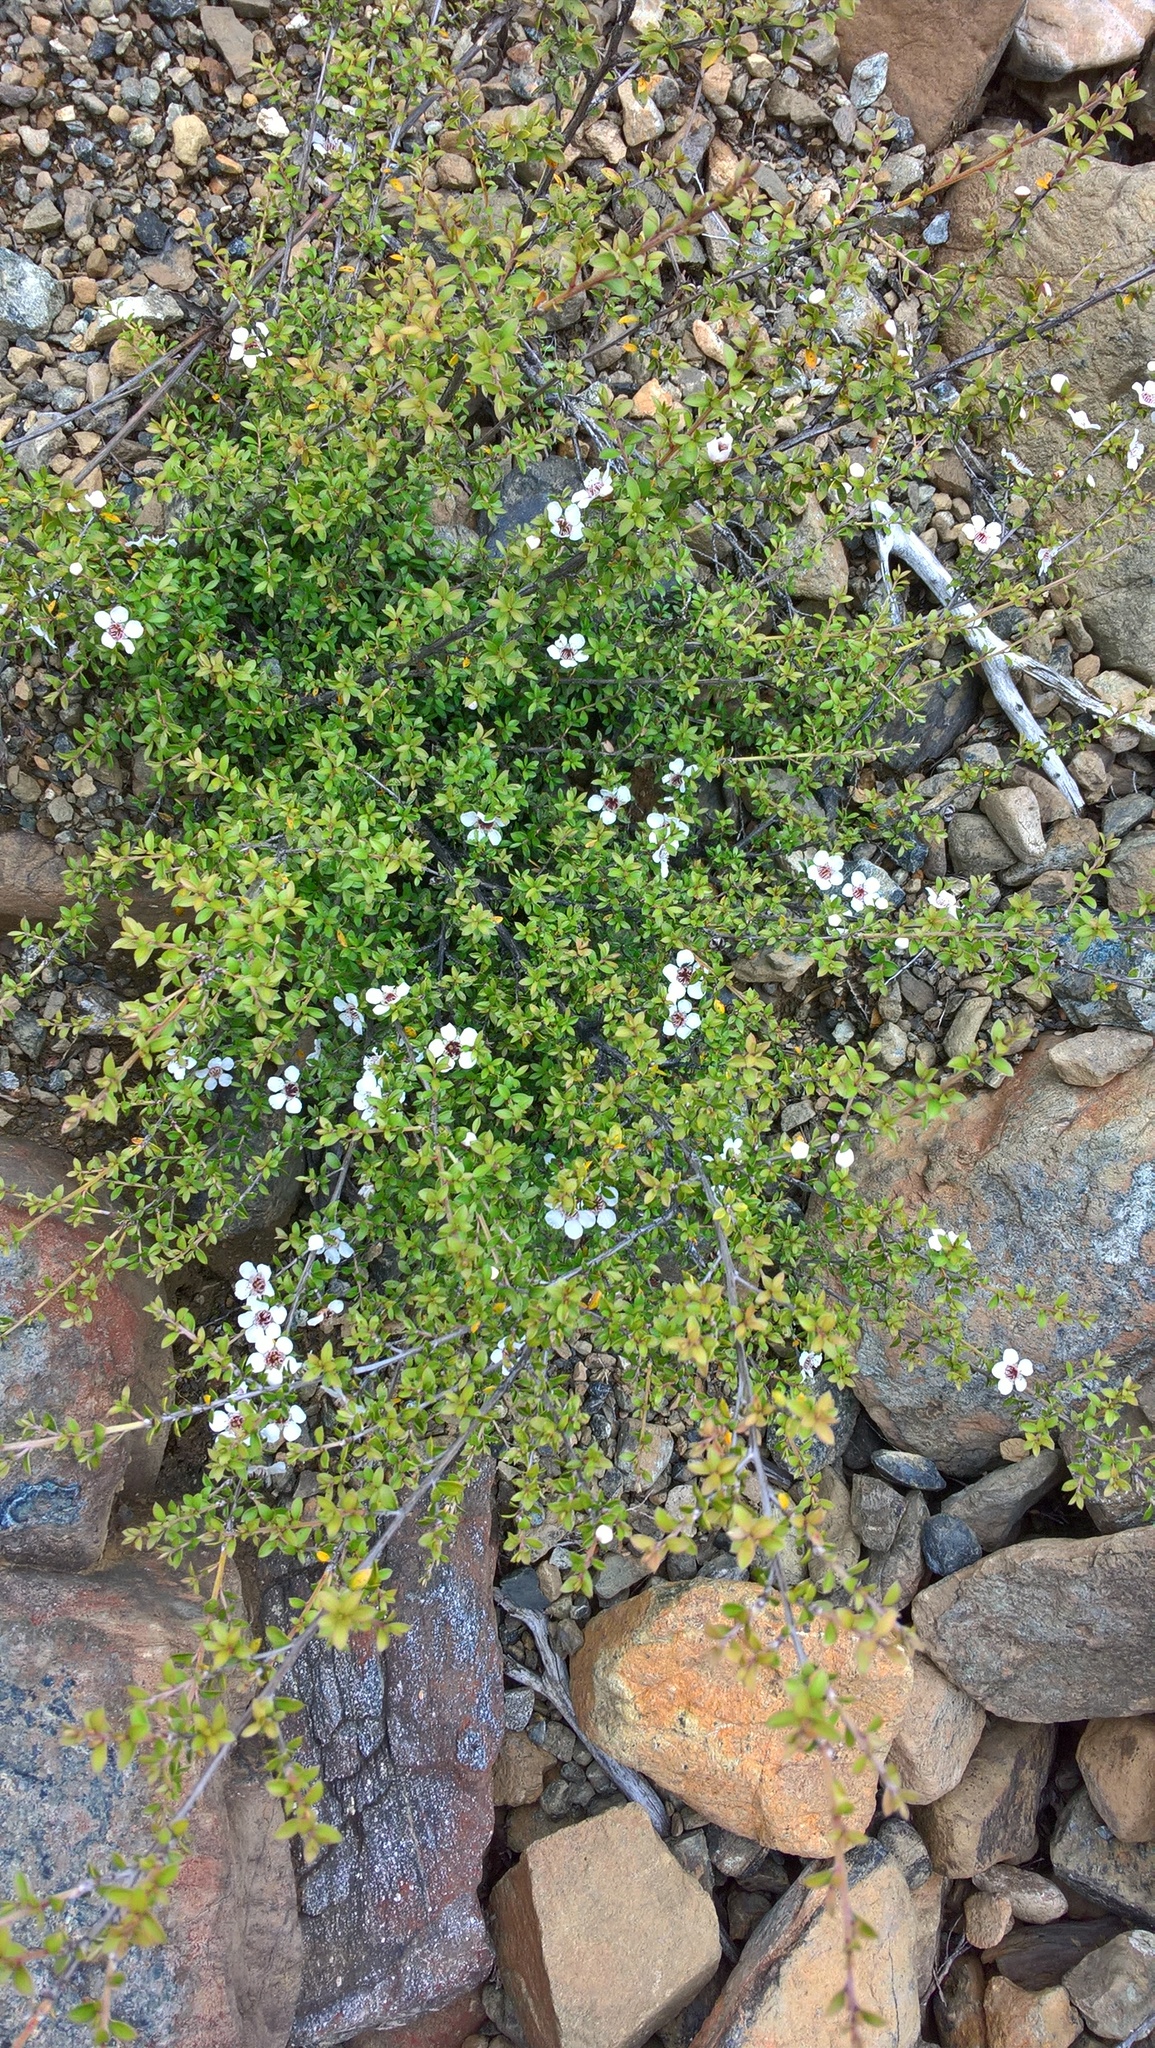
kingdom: Plantae
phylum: Tracheophyta
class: Magnoliopsida
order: Myrtales
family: Myrtaceae
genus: Leptospermum
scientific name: Leptospermum scoparium
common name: Broom tea-tree
